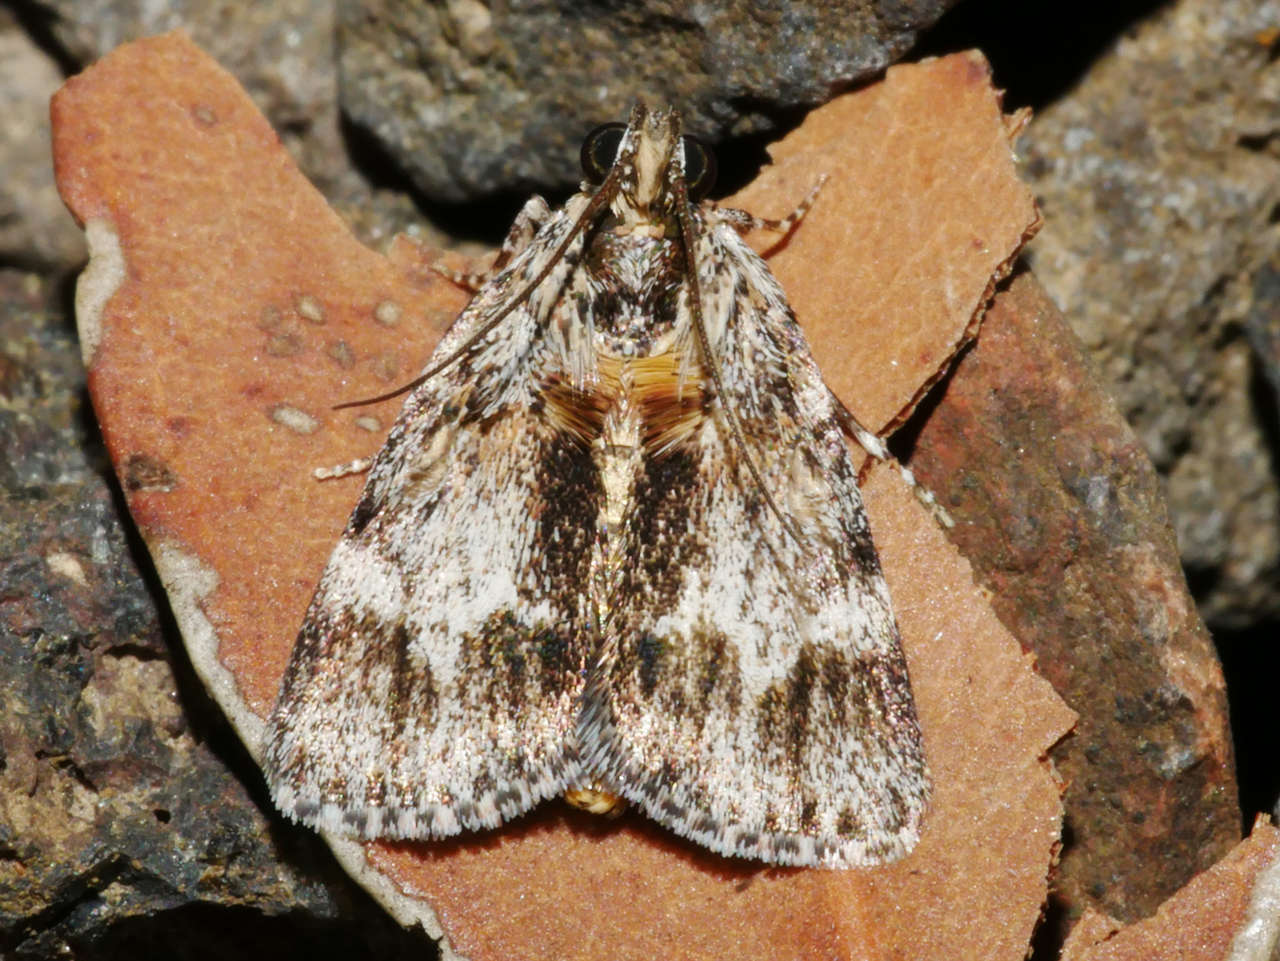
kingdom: Animalia
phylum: Arthropoda
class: Insecta
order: Lepidoptera
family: Pyralidae
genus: Spectrotrota
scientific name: Spectrotrota fimbrialis
